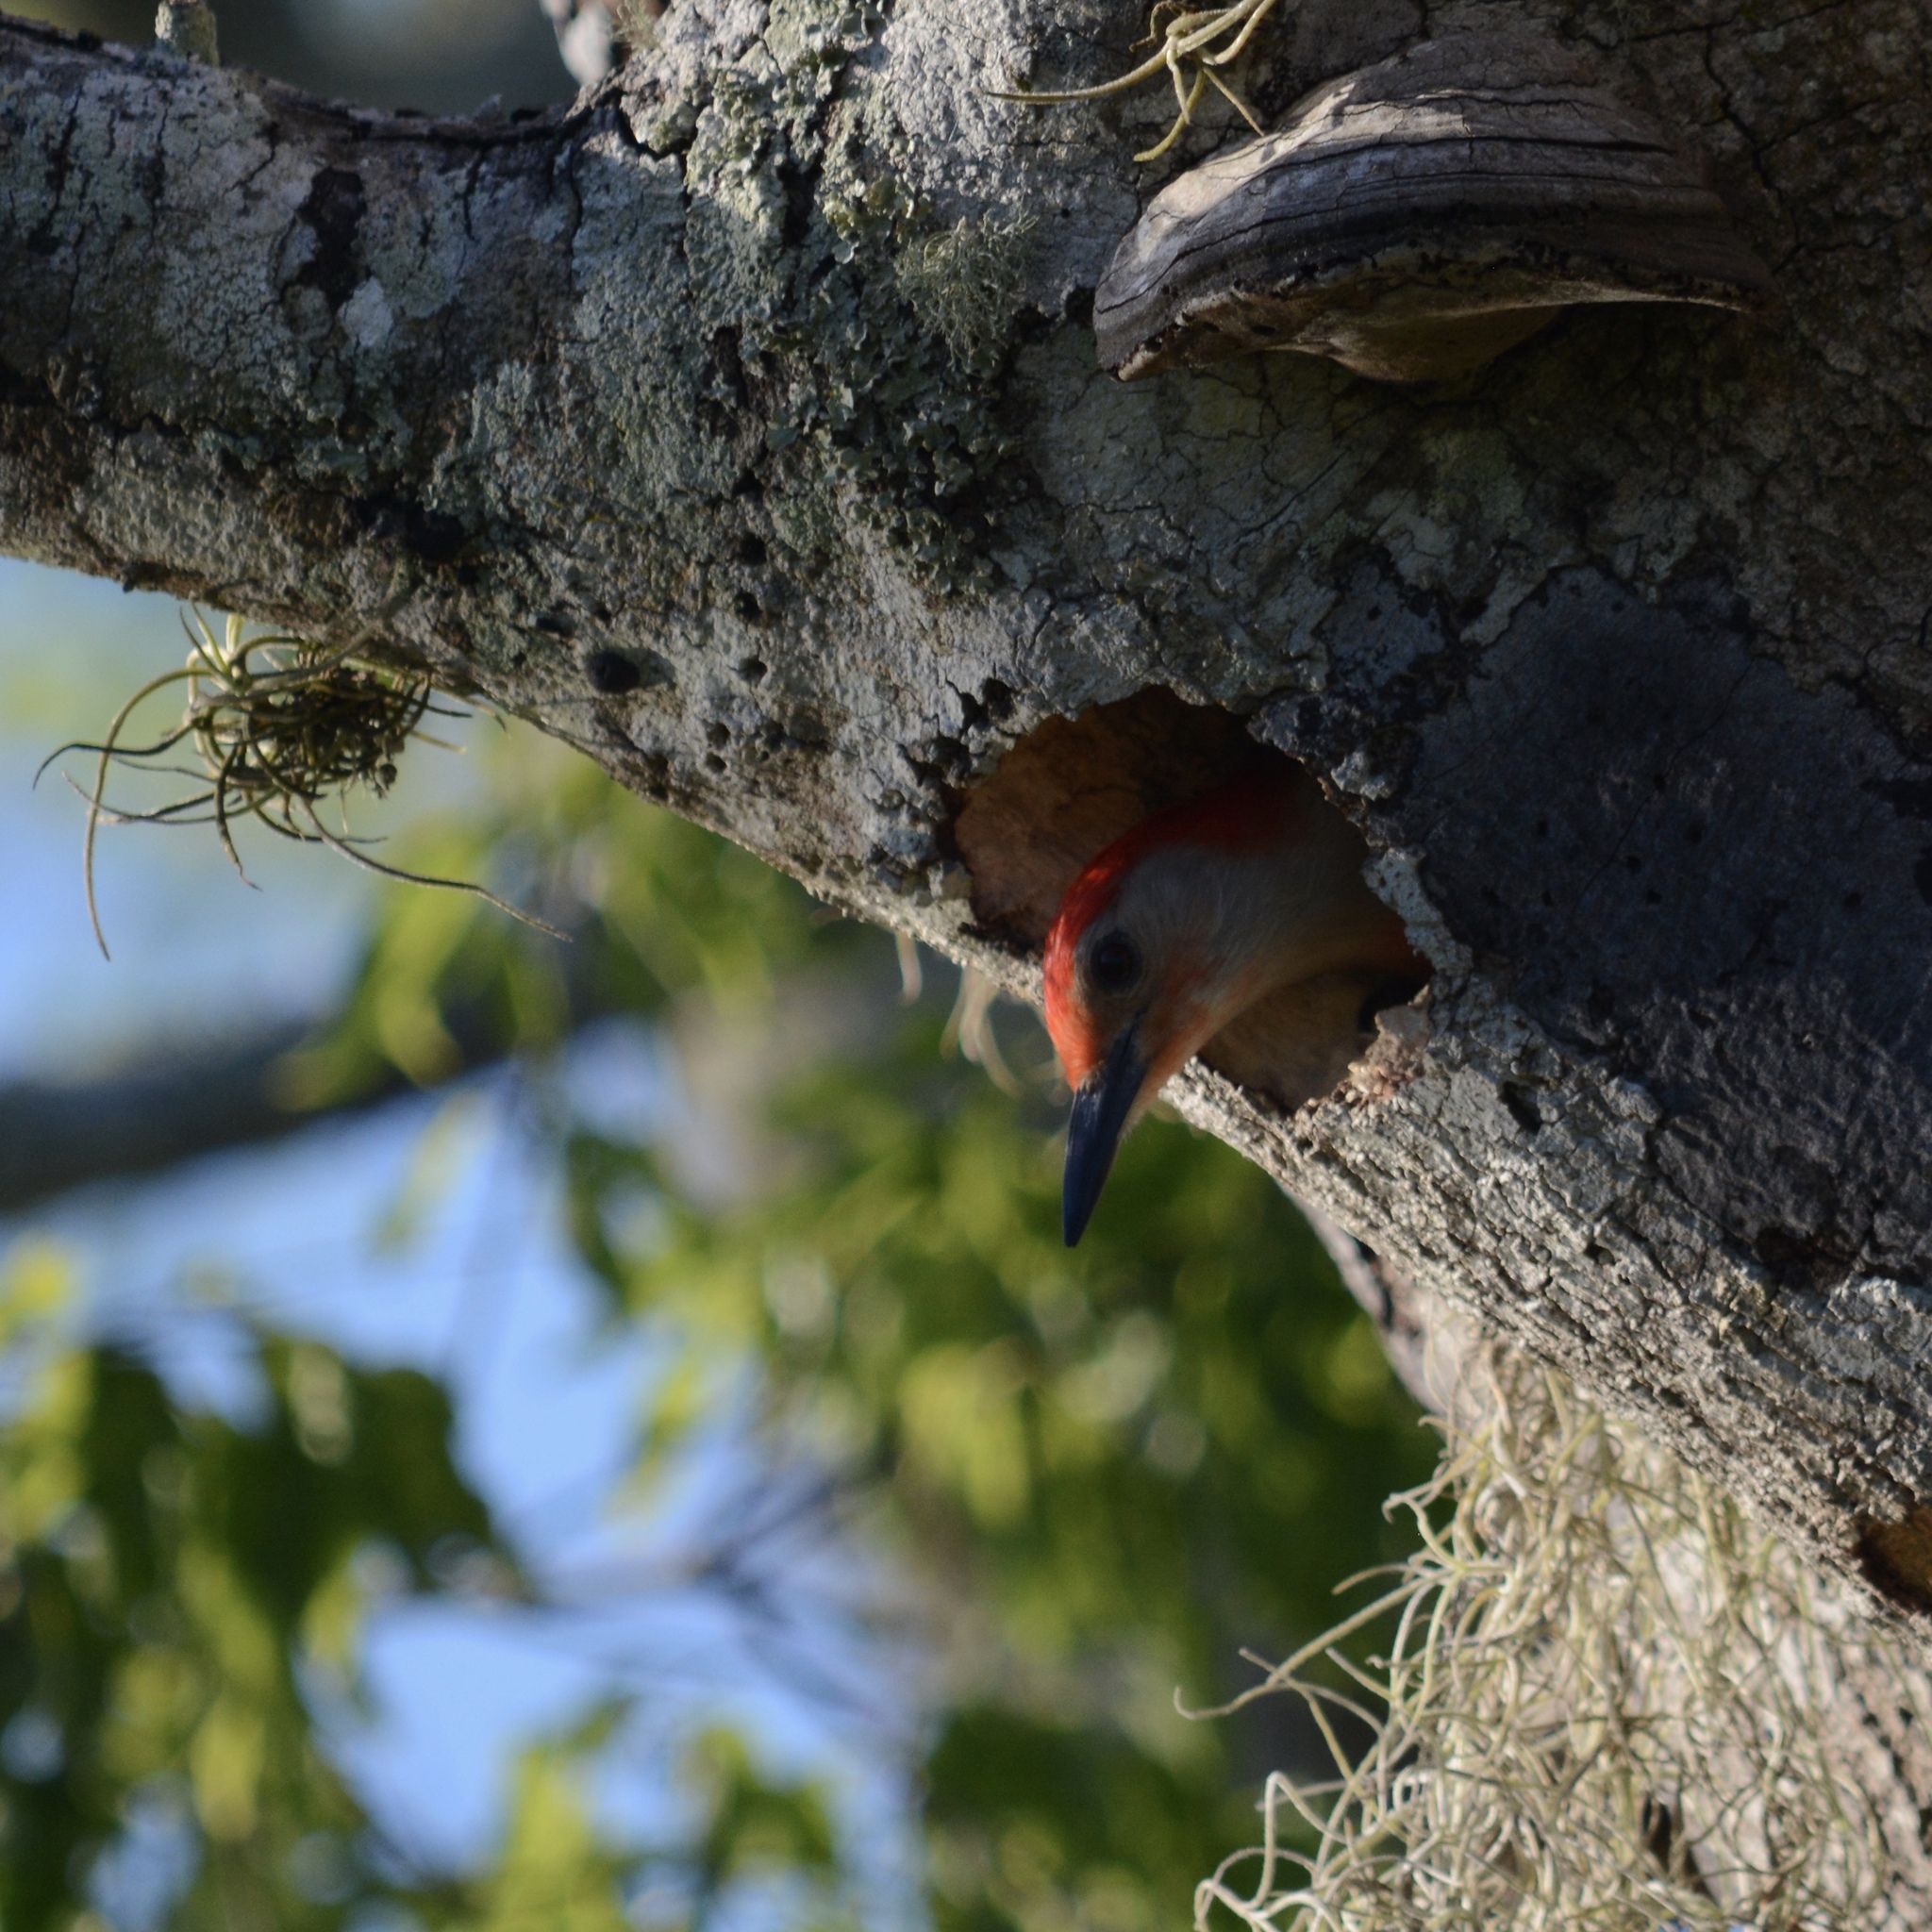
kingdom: Animalia
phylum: Chordata
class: Aves
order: Piciformes
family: Picidae
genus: Melanerpes
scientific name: Melanerpes carolinus
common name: Red-bellied woodpecker
